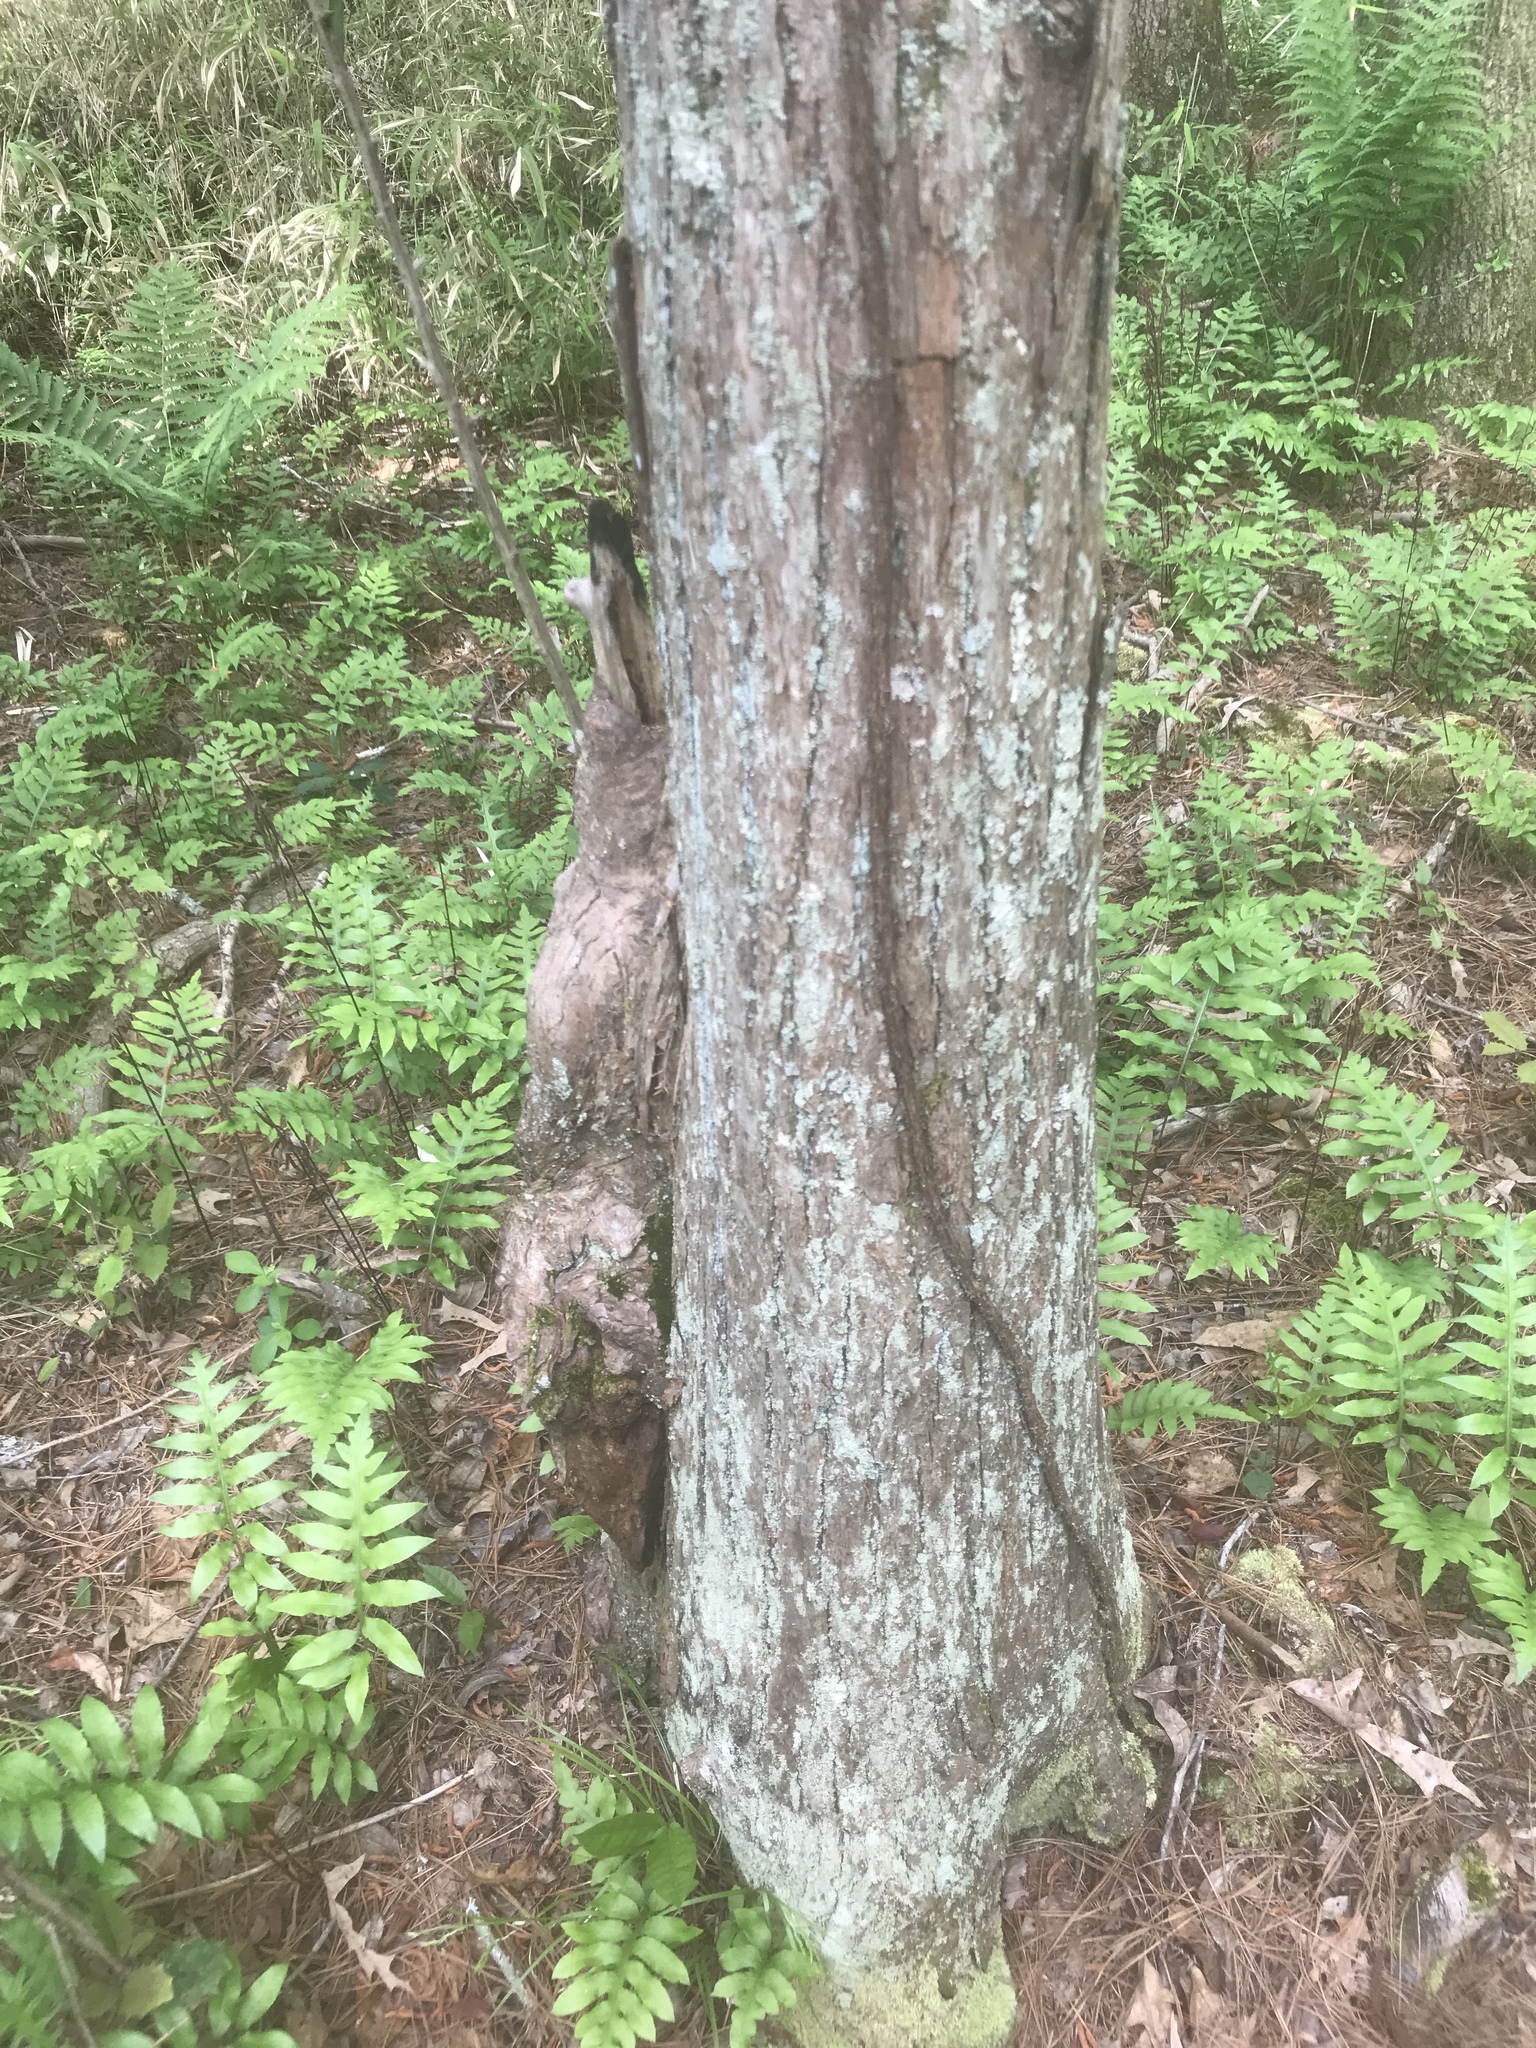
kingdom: Plantae
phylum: Tracheophyta
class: Pinopsida
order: Pinales
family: Cupressaceae
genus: Taxodium
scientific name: Taxodium distichum
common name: Bald cypress
